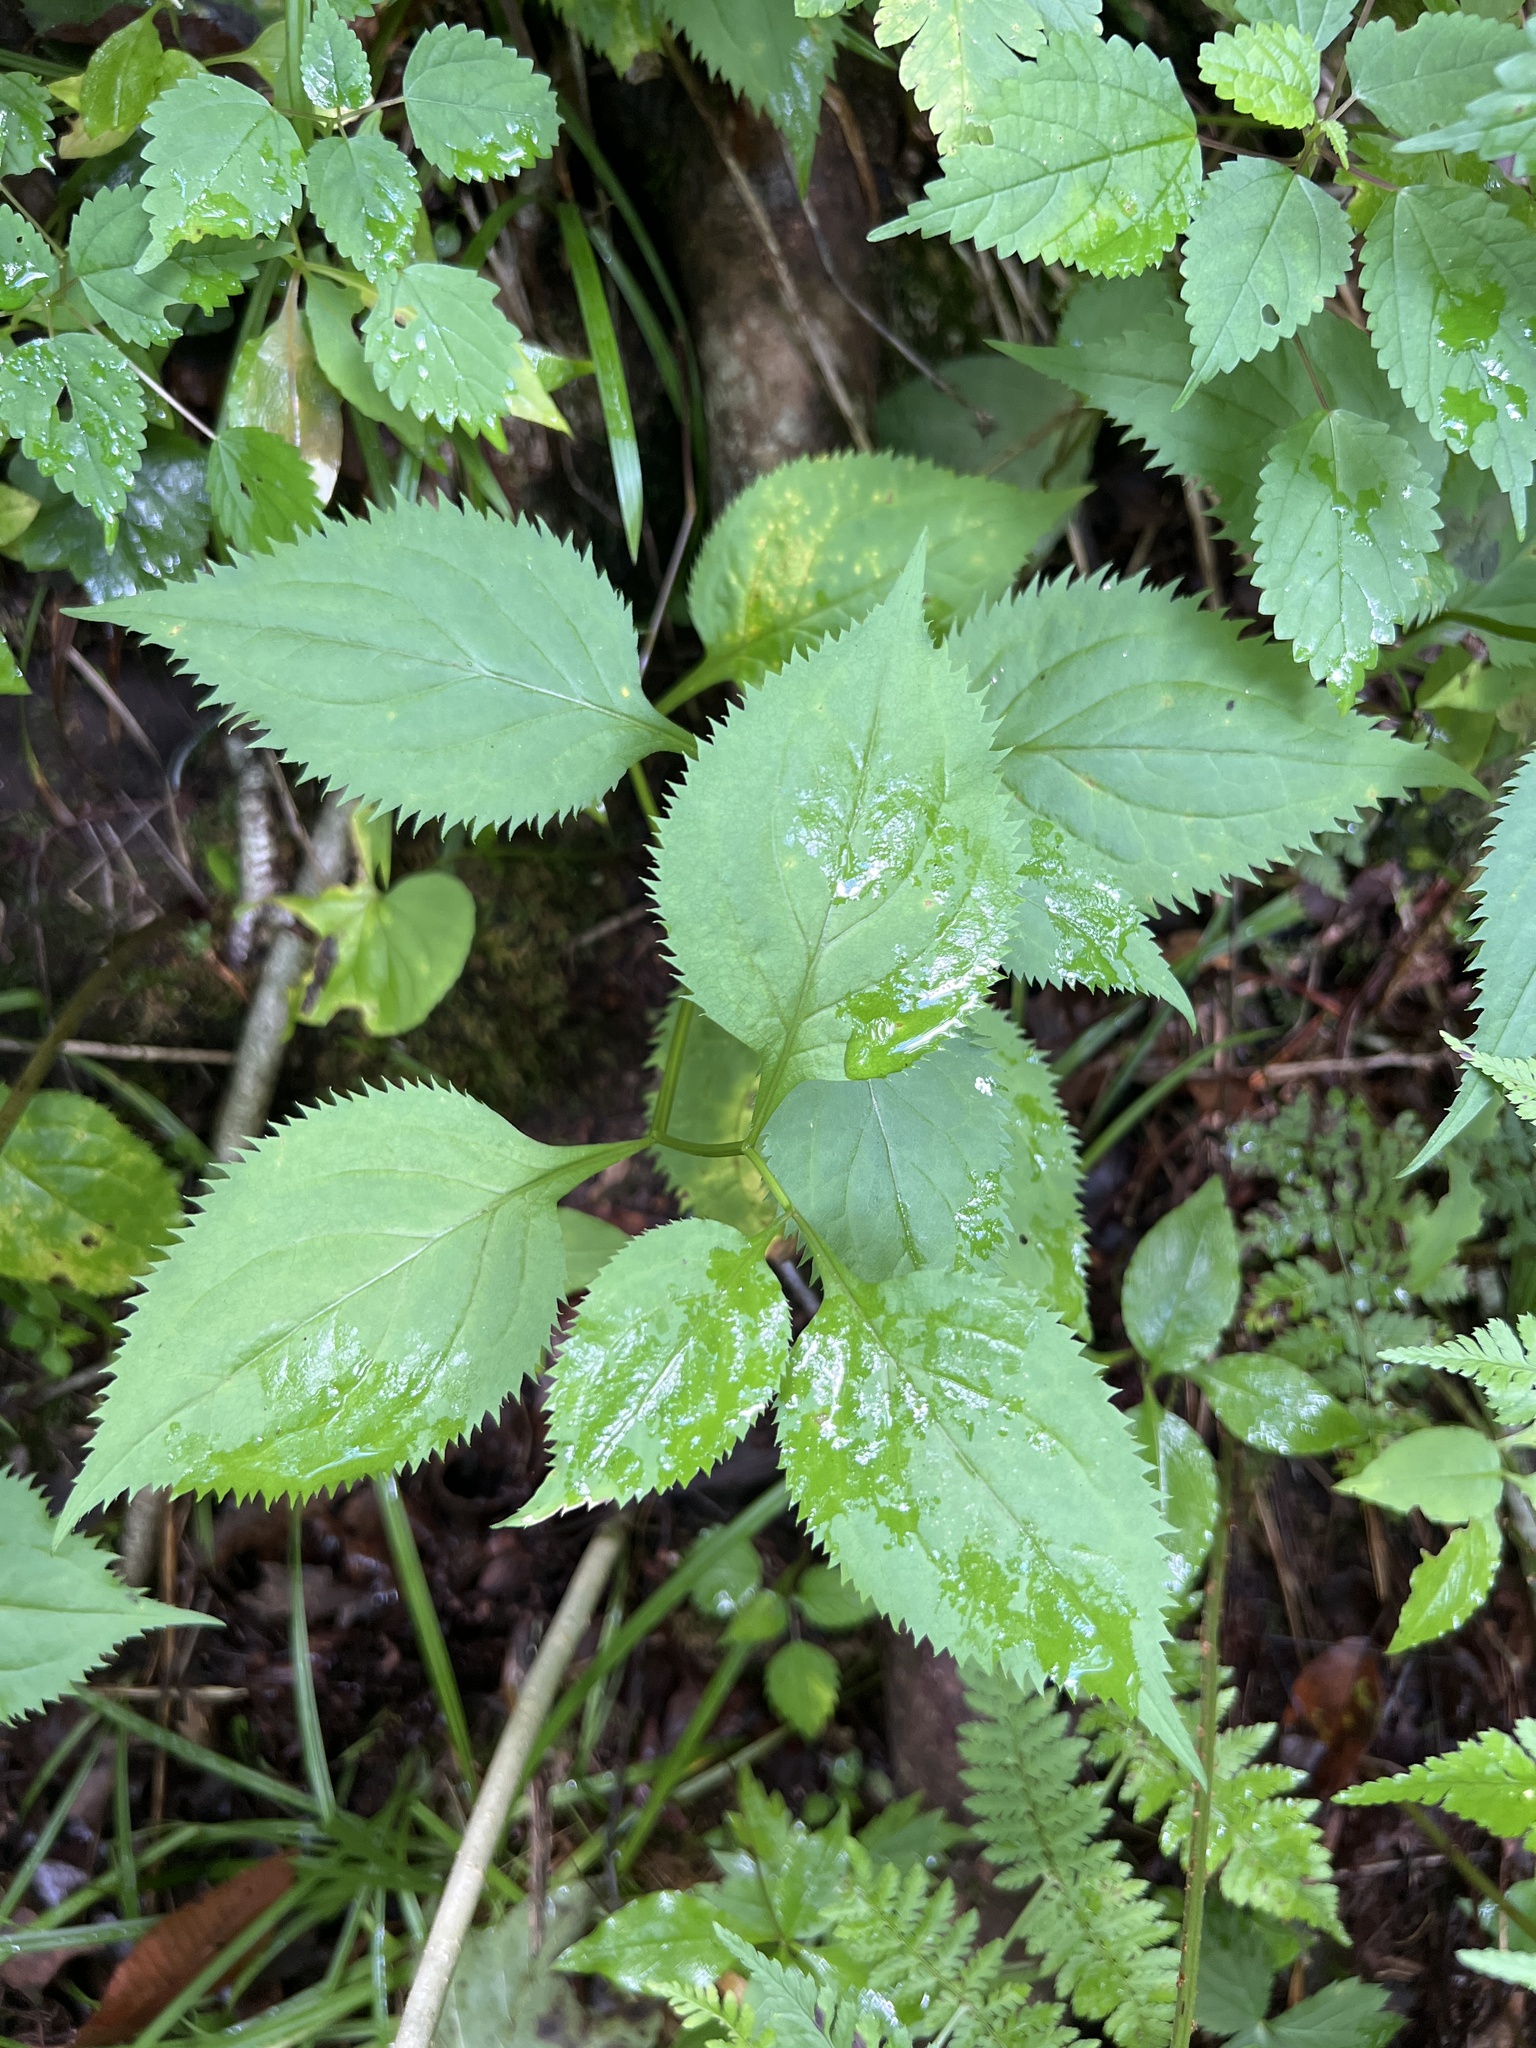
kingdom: Plantae
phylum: Tracheophyta
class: Magnoliopsida
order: Asterales
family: Asteraceae
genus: Solidago
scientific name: Solidago flexicaulis
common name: Zig-zag goldenrod
